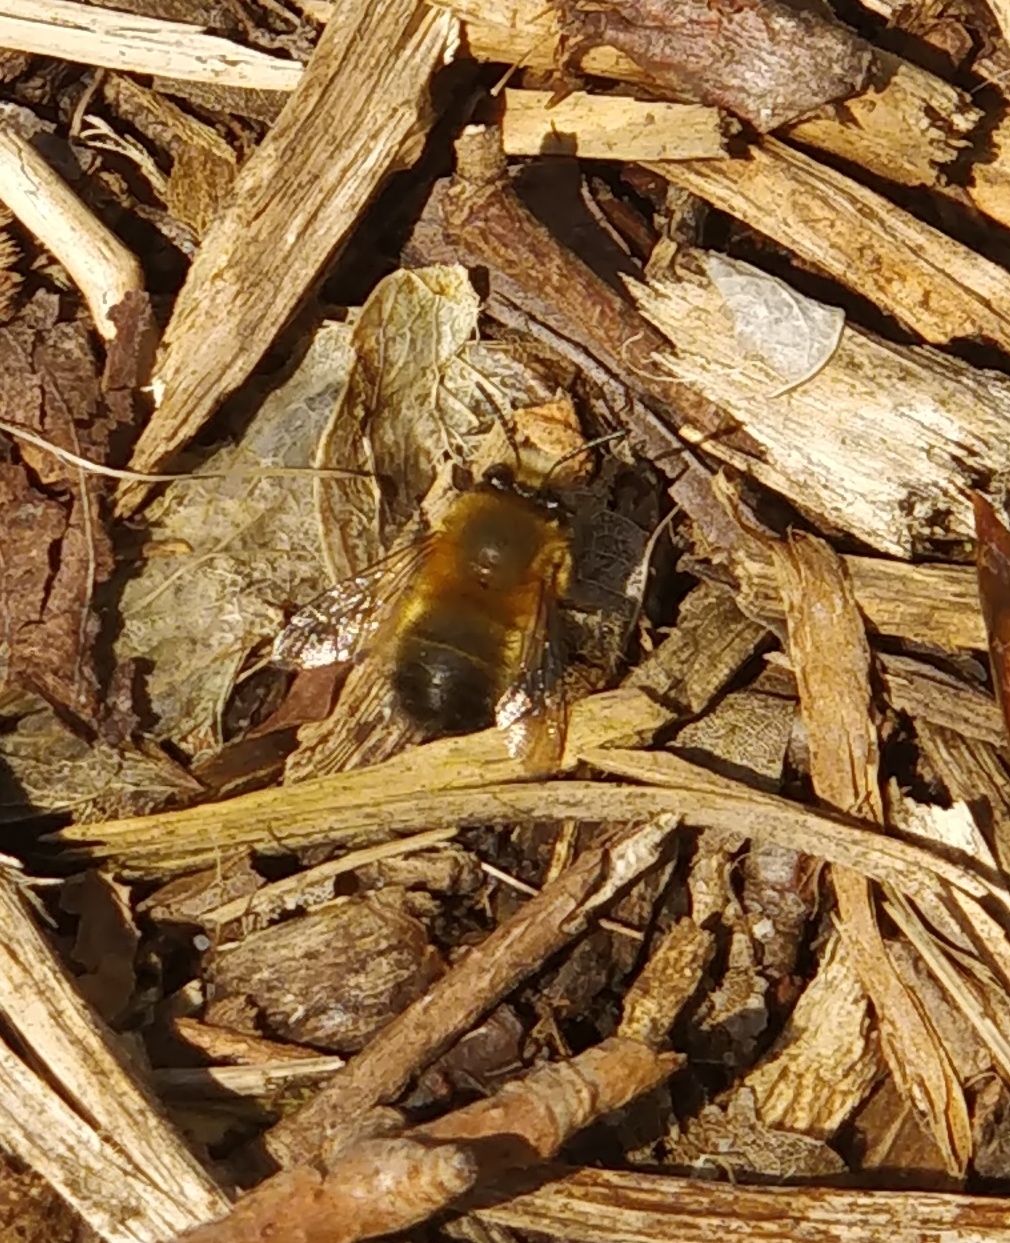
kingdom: Animalia
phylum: Arthropoda
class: Insecta
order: Hymenoptera
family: Apidae
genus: Anthophora
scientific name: Anthophora plumipes
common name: Hairy-footed flower bee
